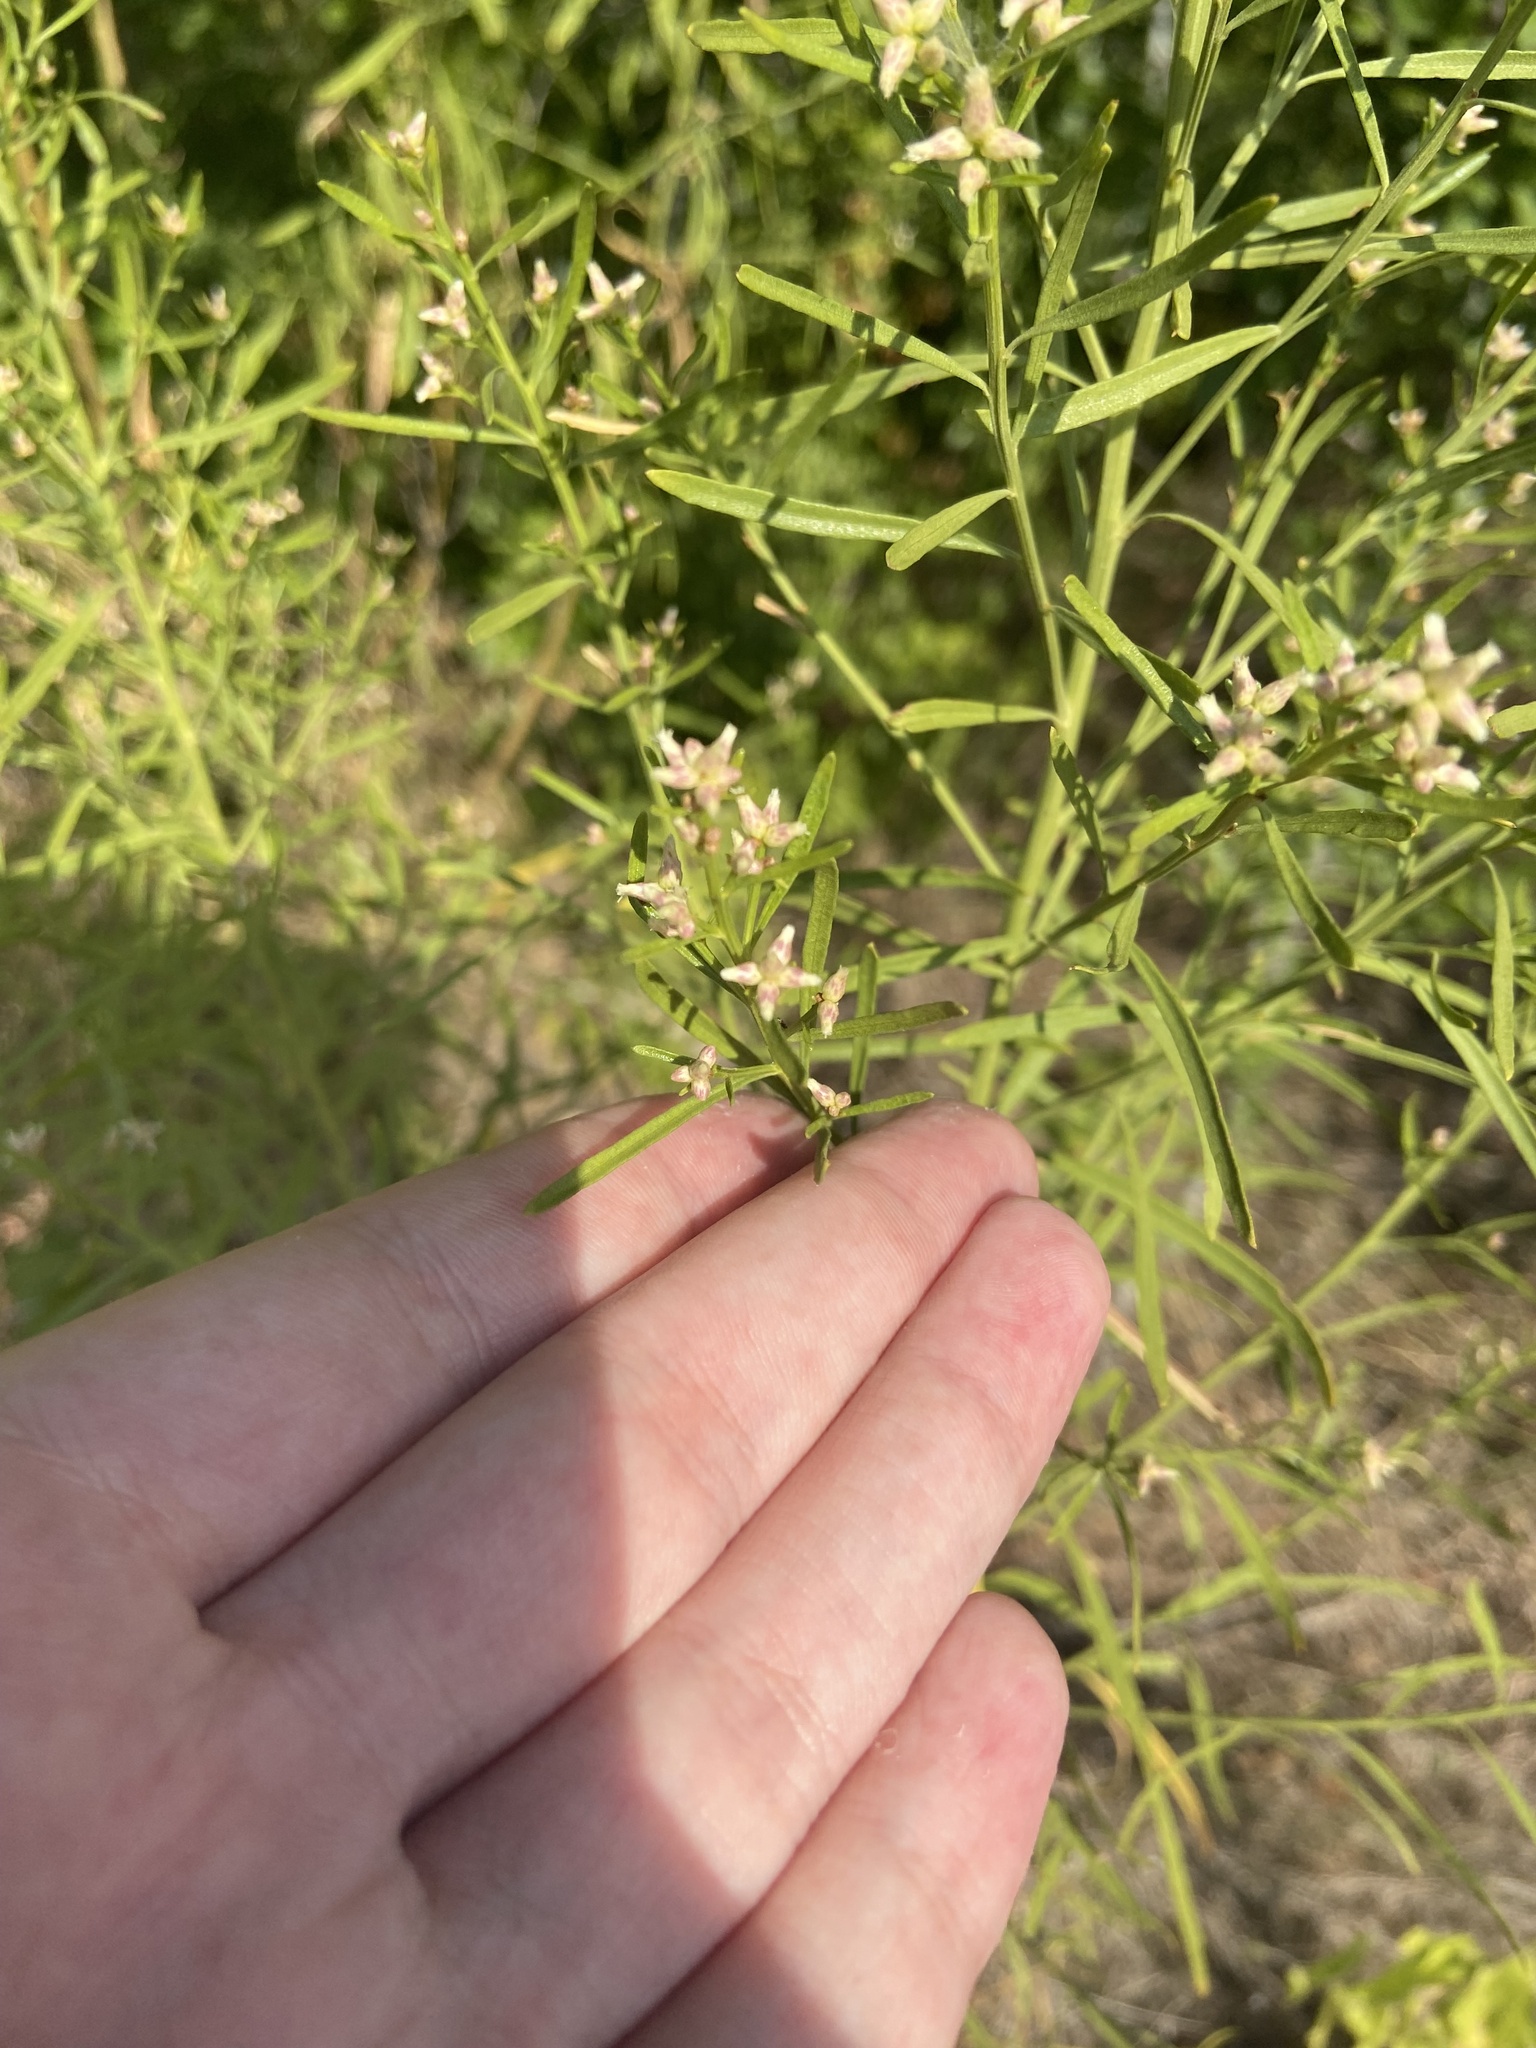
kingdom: Plantae
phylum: Tracheophyta
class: Magnoliopsida
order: Asterales
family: Asteraceae
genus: Baccharis
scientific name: Baccharis neglecta
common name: Roosevelt-weed
